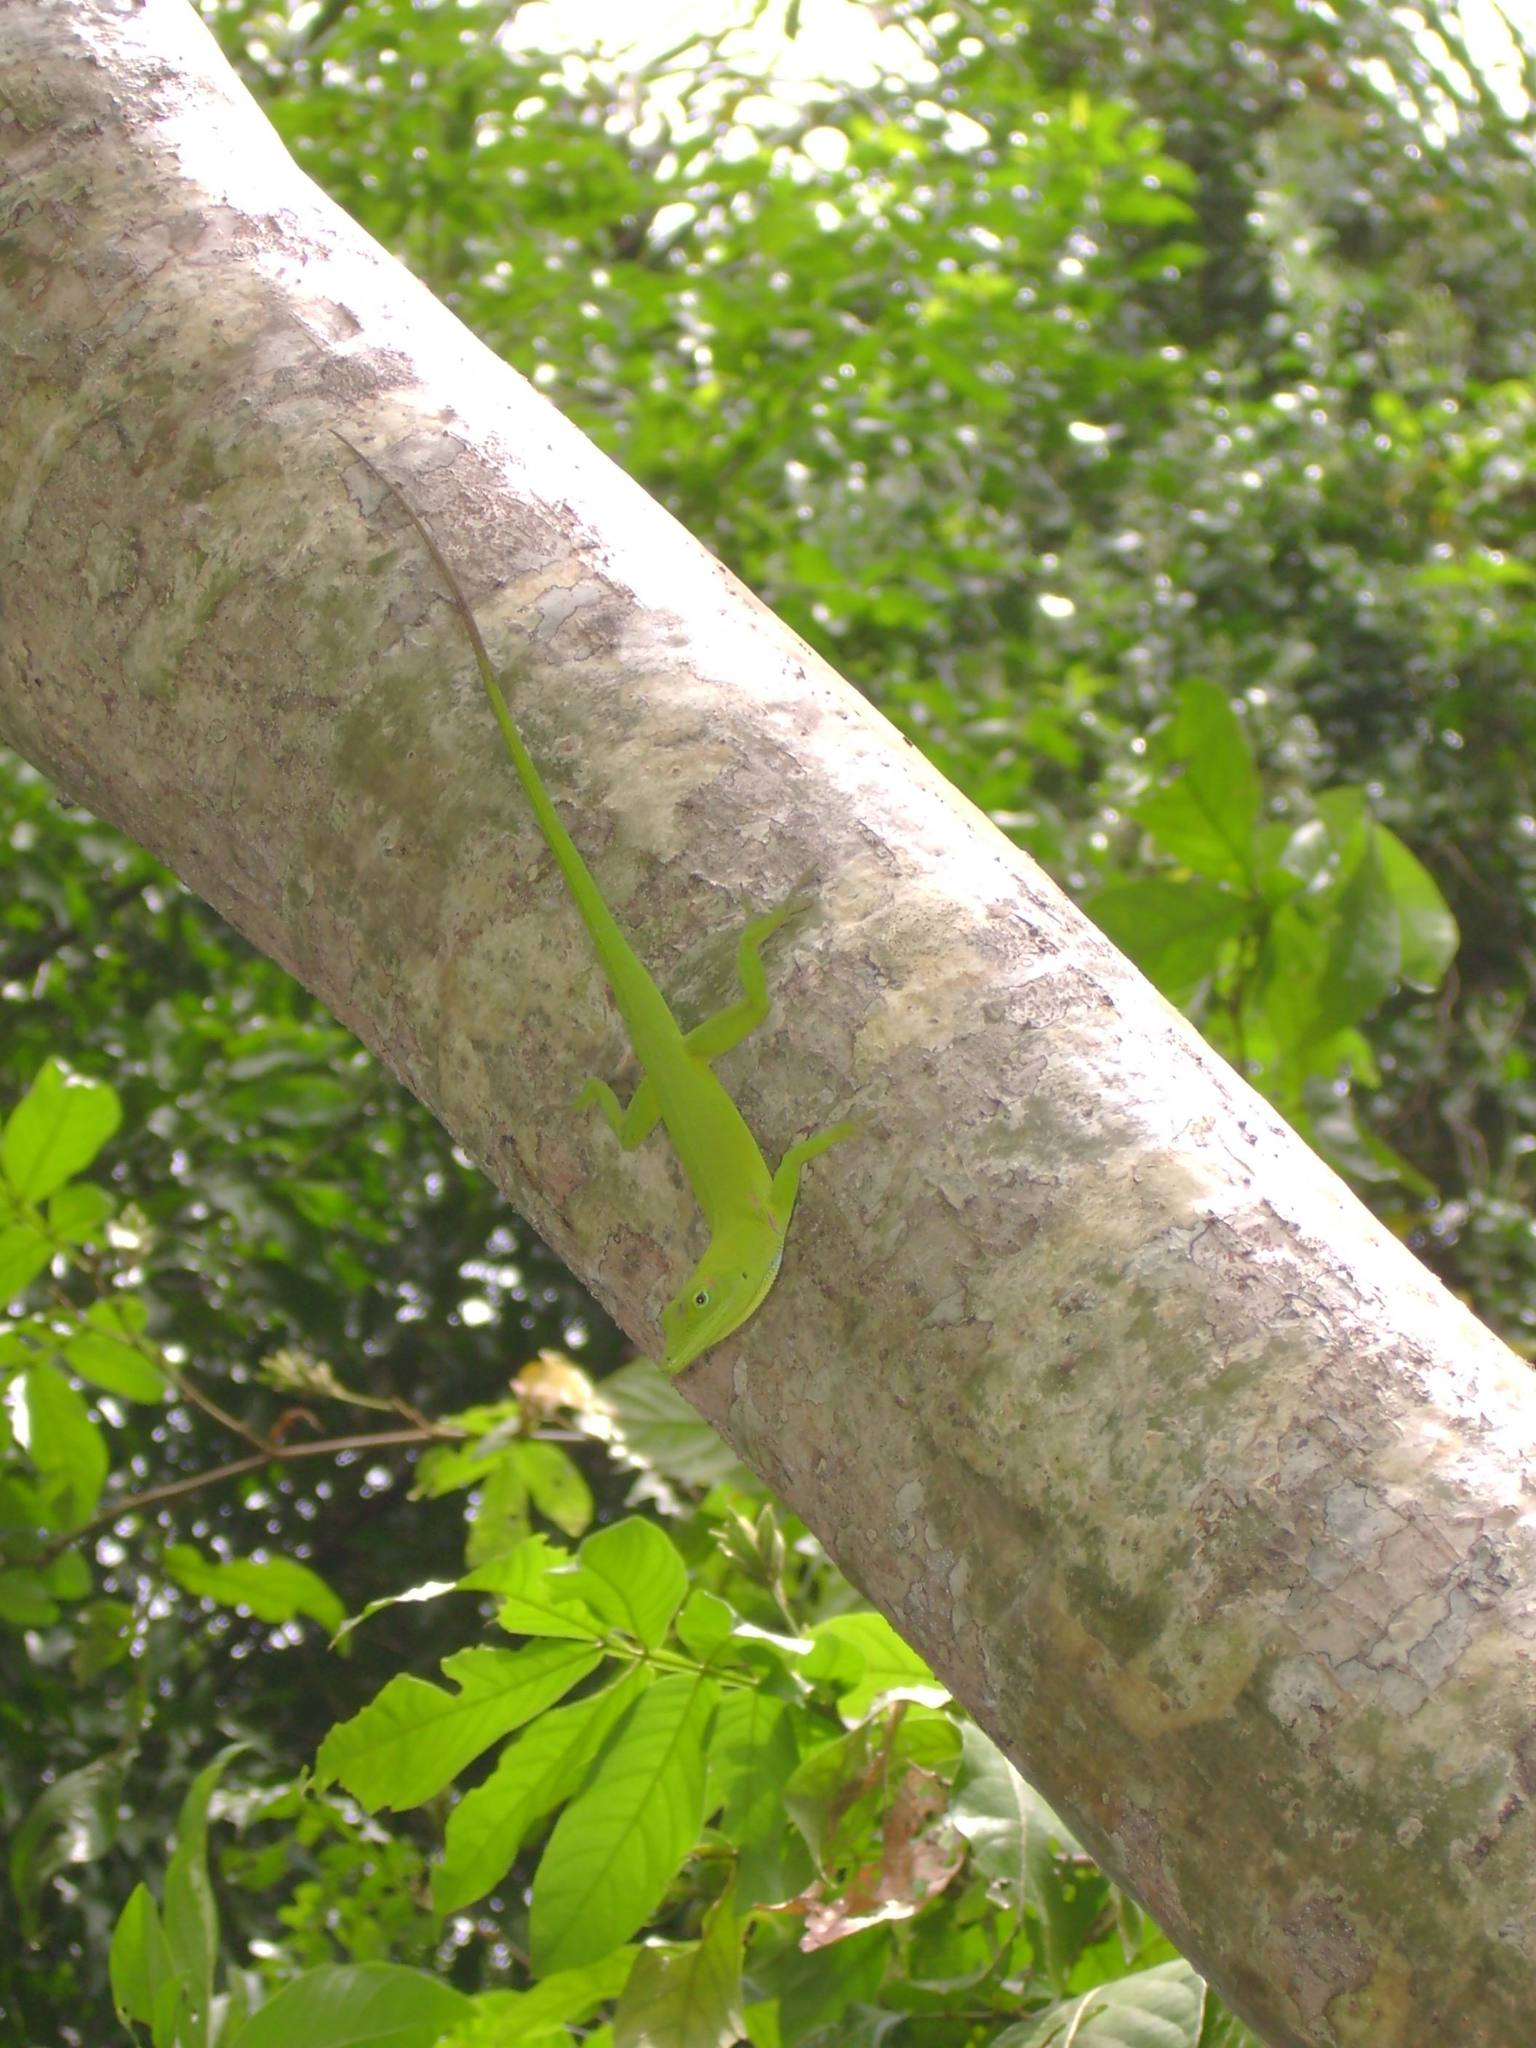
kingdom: Animalia
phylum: Chordata
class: Squamata
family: Dactyloidae
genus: Anolis
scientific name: Anolis callainus
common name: Dominican green anole
